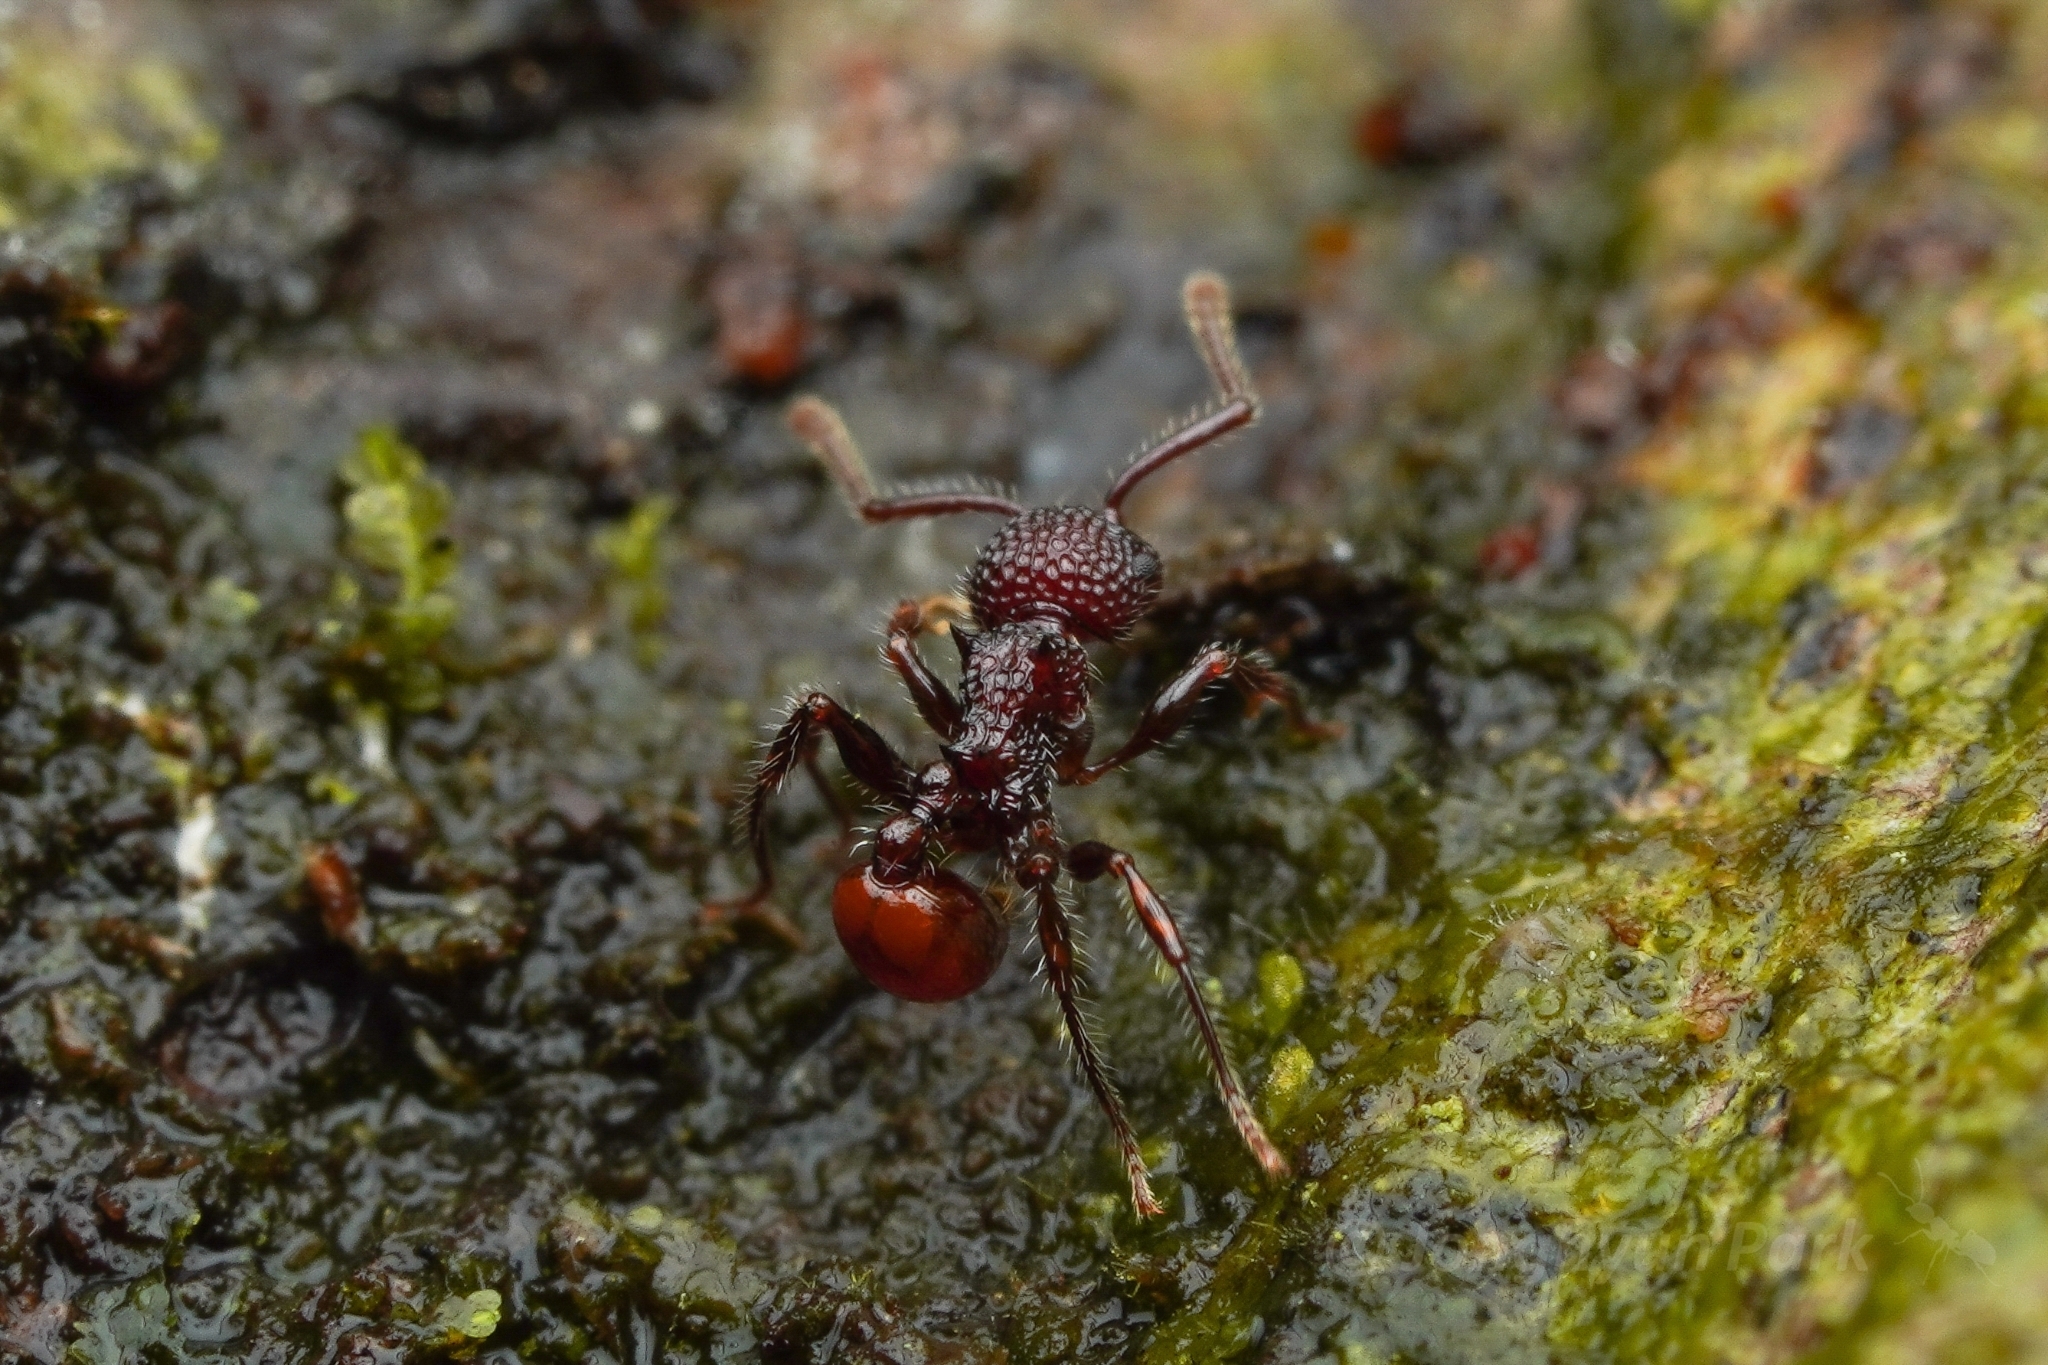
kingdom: Animalia
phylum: Arthropoda
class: Insecta
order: Hymenoptera
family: Formicidae
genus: Pristomyrmex
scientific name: Pristomyrmex costatus
